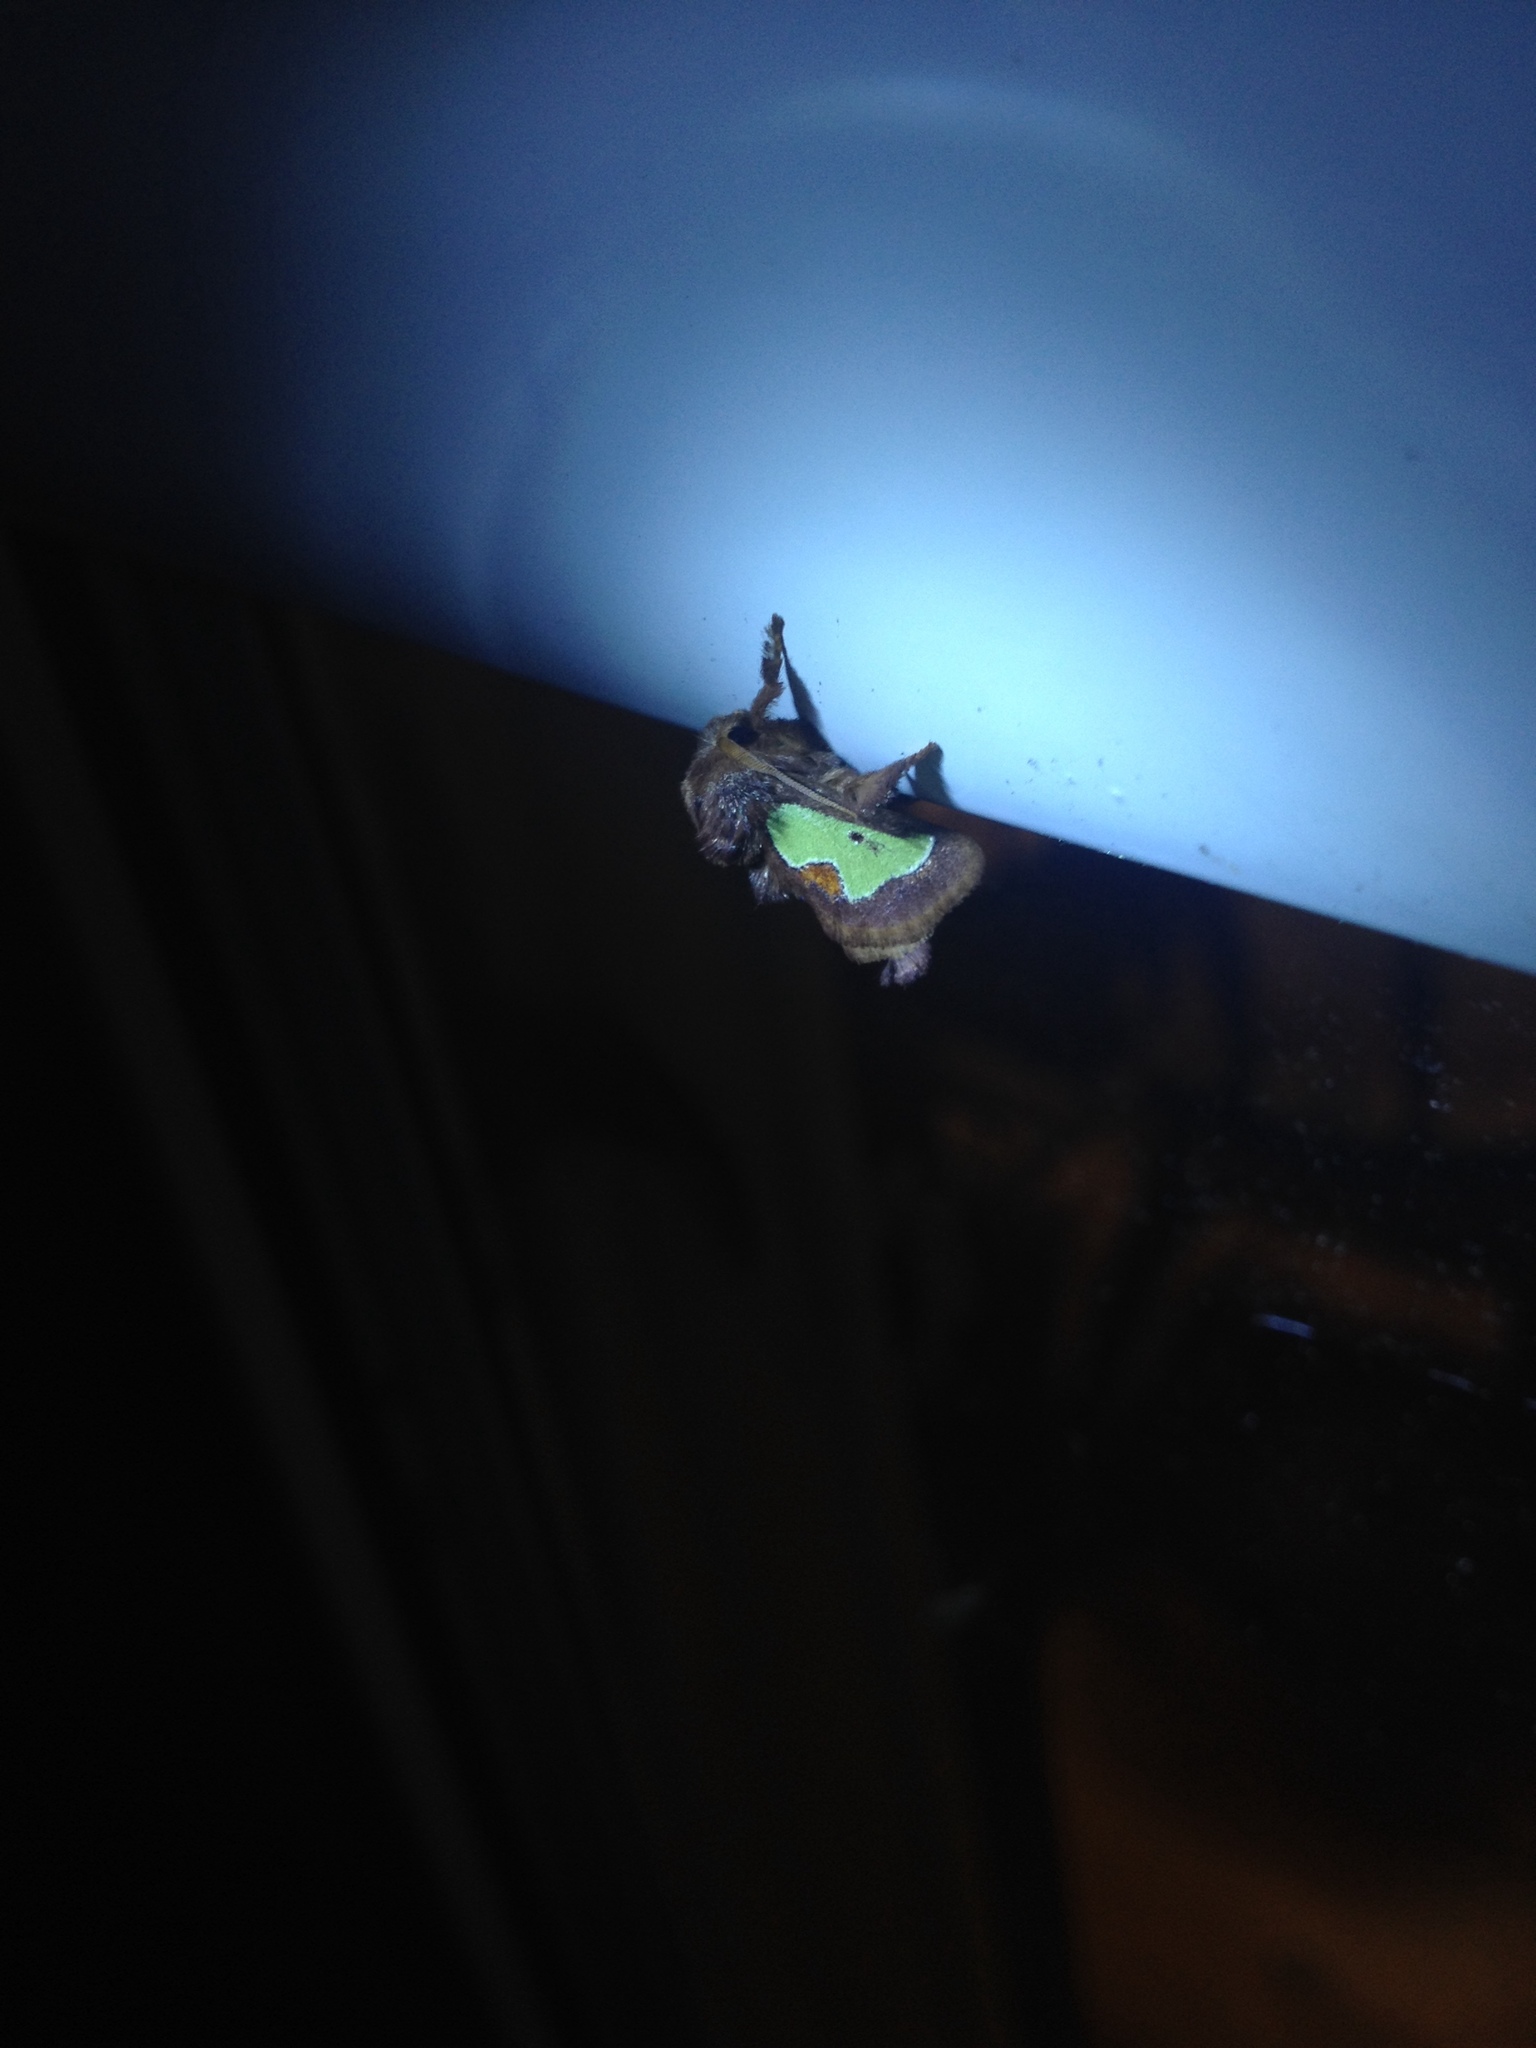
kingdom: Animalia
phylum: Arthropoda
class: Insecta
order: Lepidoptera
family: Limacodidae
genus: Euclea
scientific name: Euclea delphinii
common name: Spiny oak-slug moth
